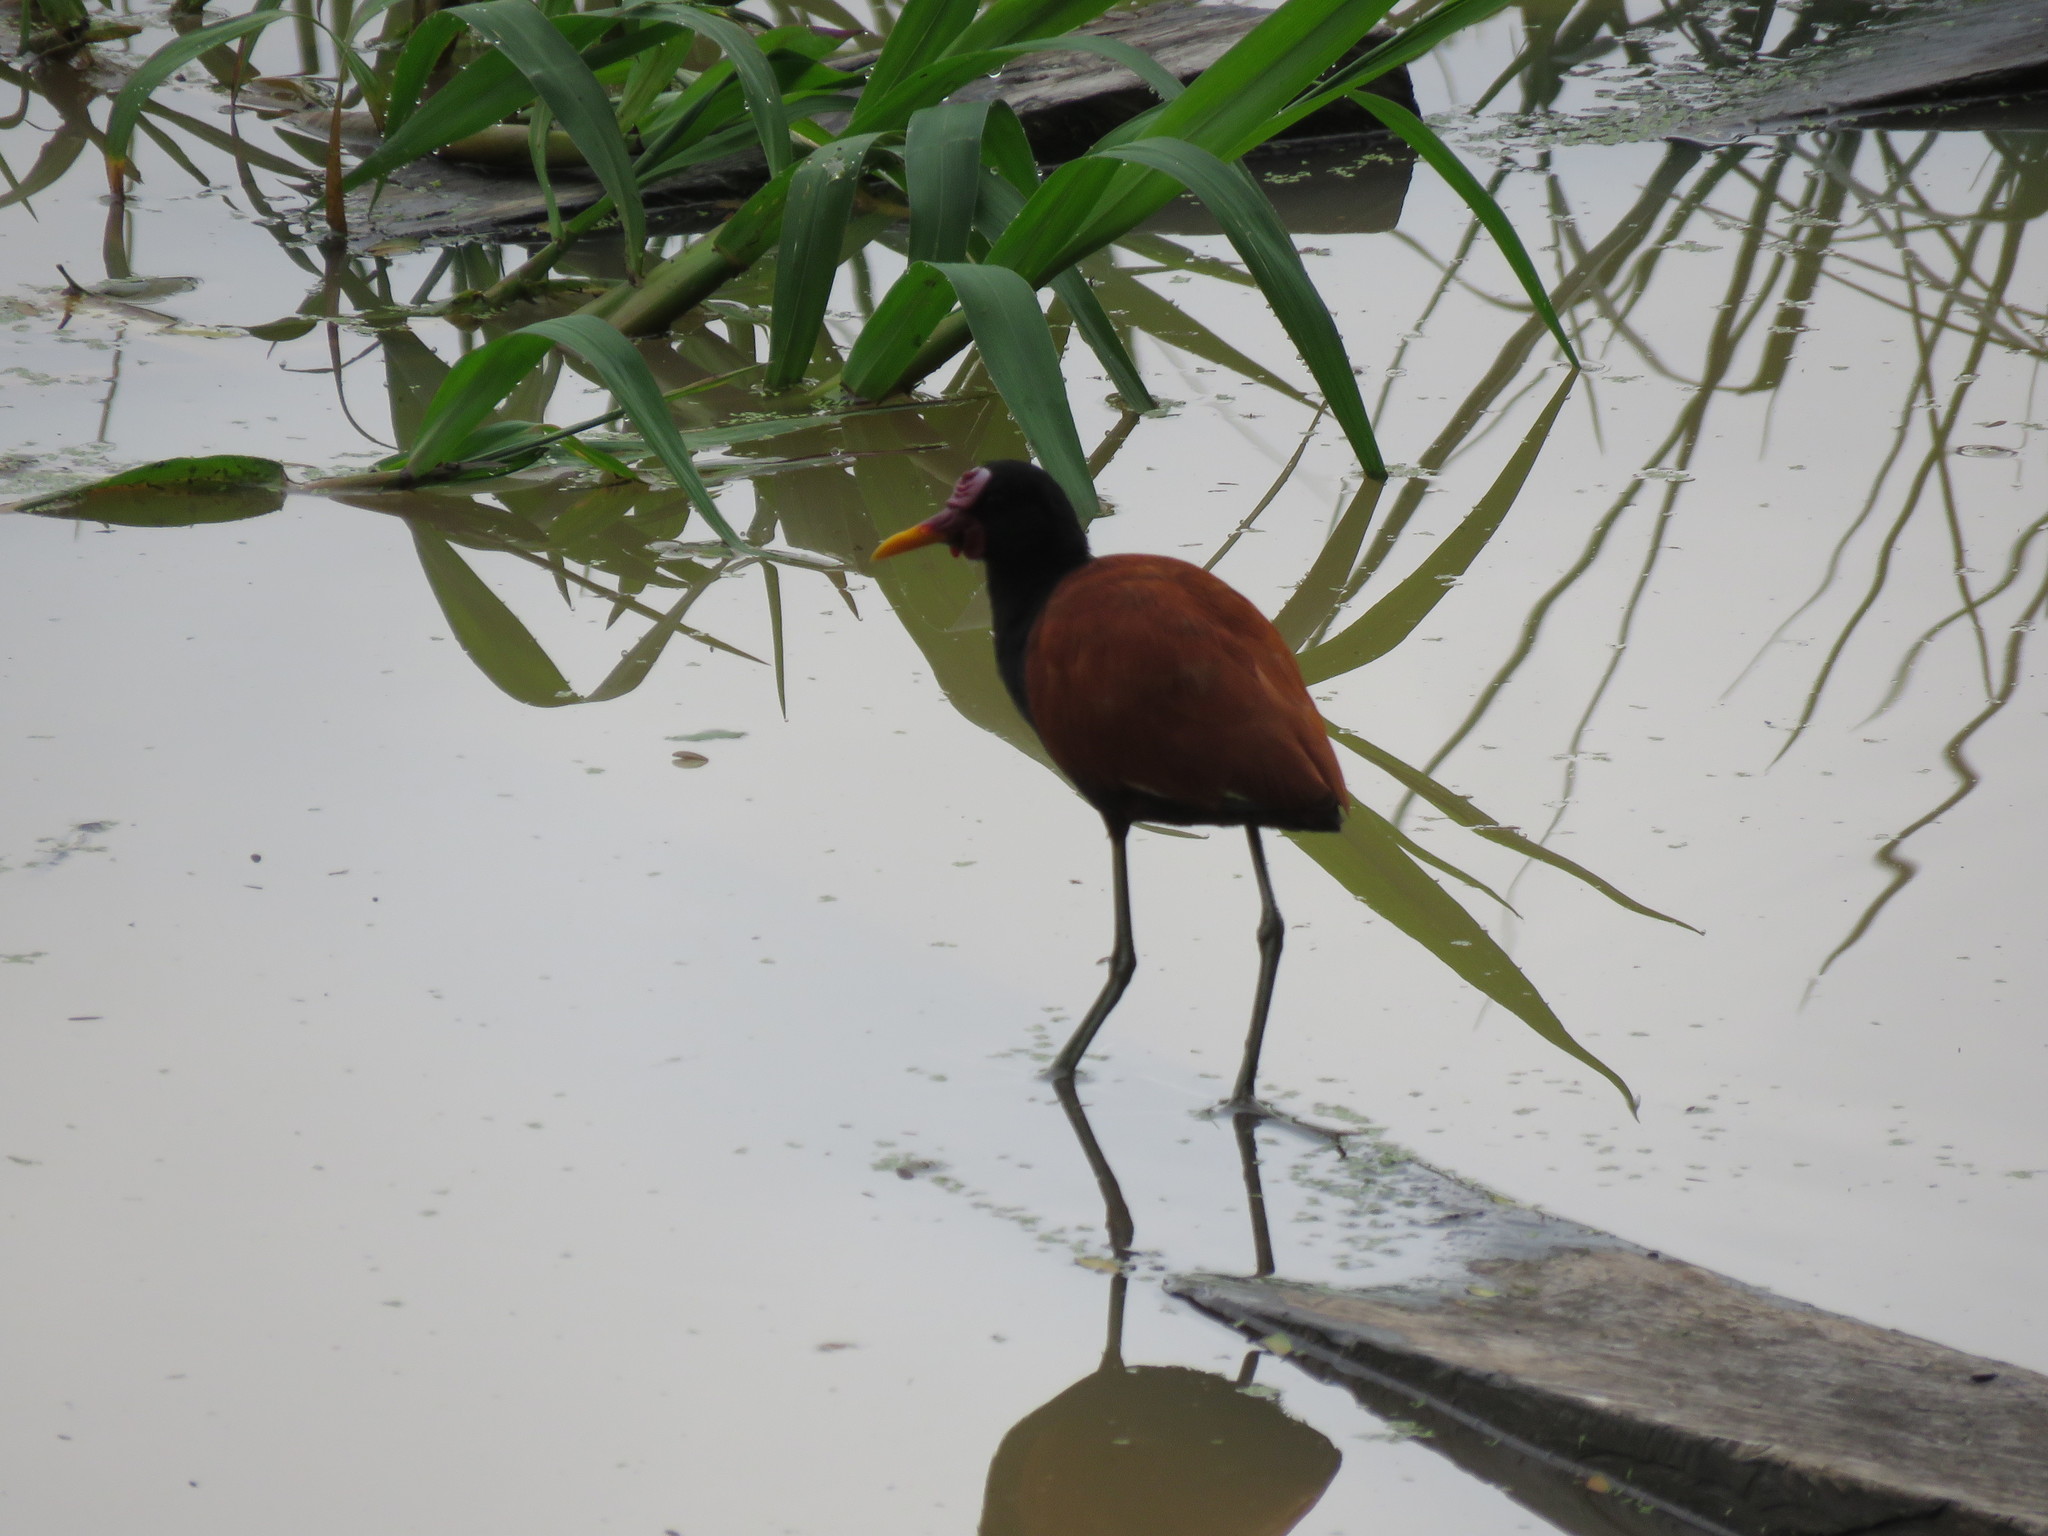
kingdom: Animalia
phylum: Chordata
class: Aves
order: Charadriiformes
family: Jacanidae
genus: Jacana
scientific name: Jacana jacana
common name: Wattled jacana
